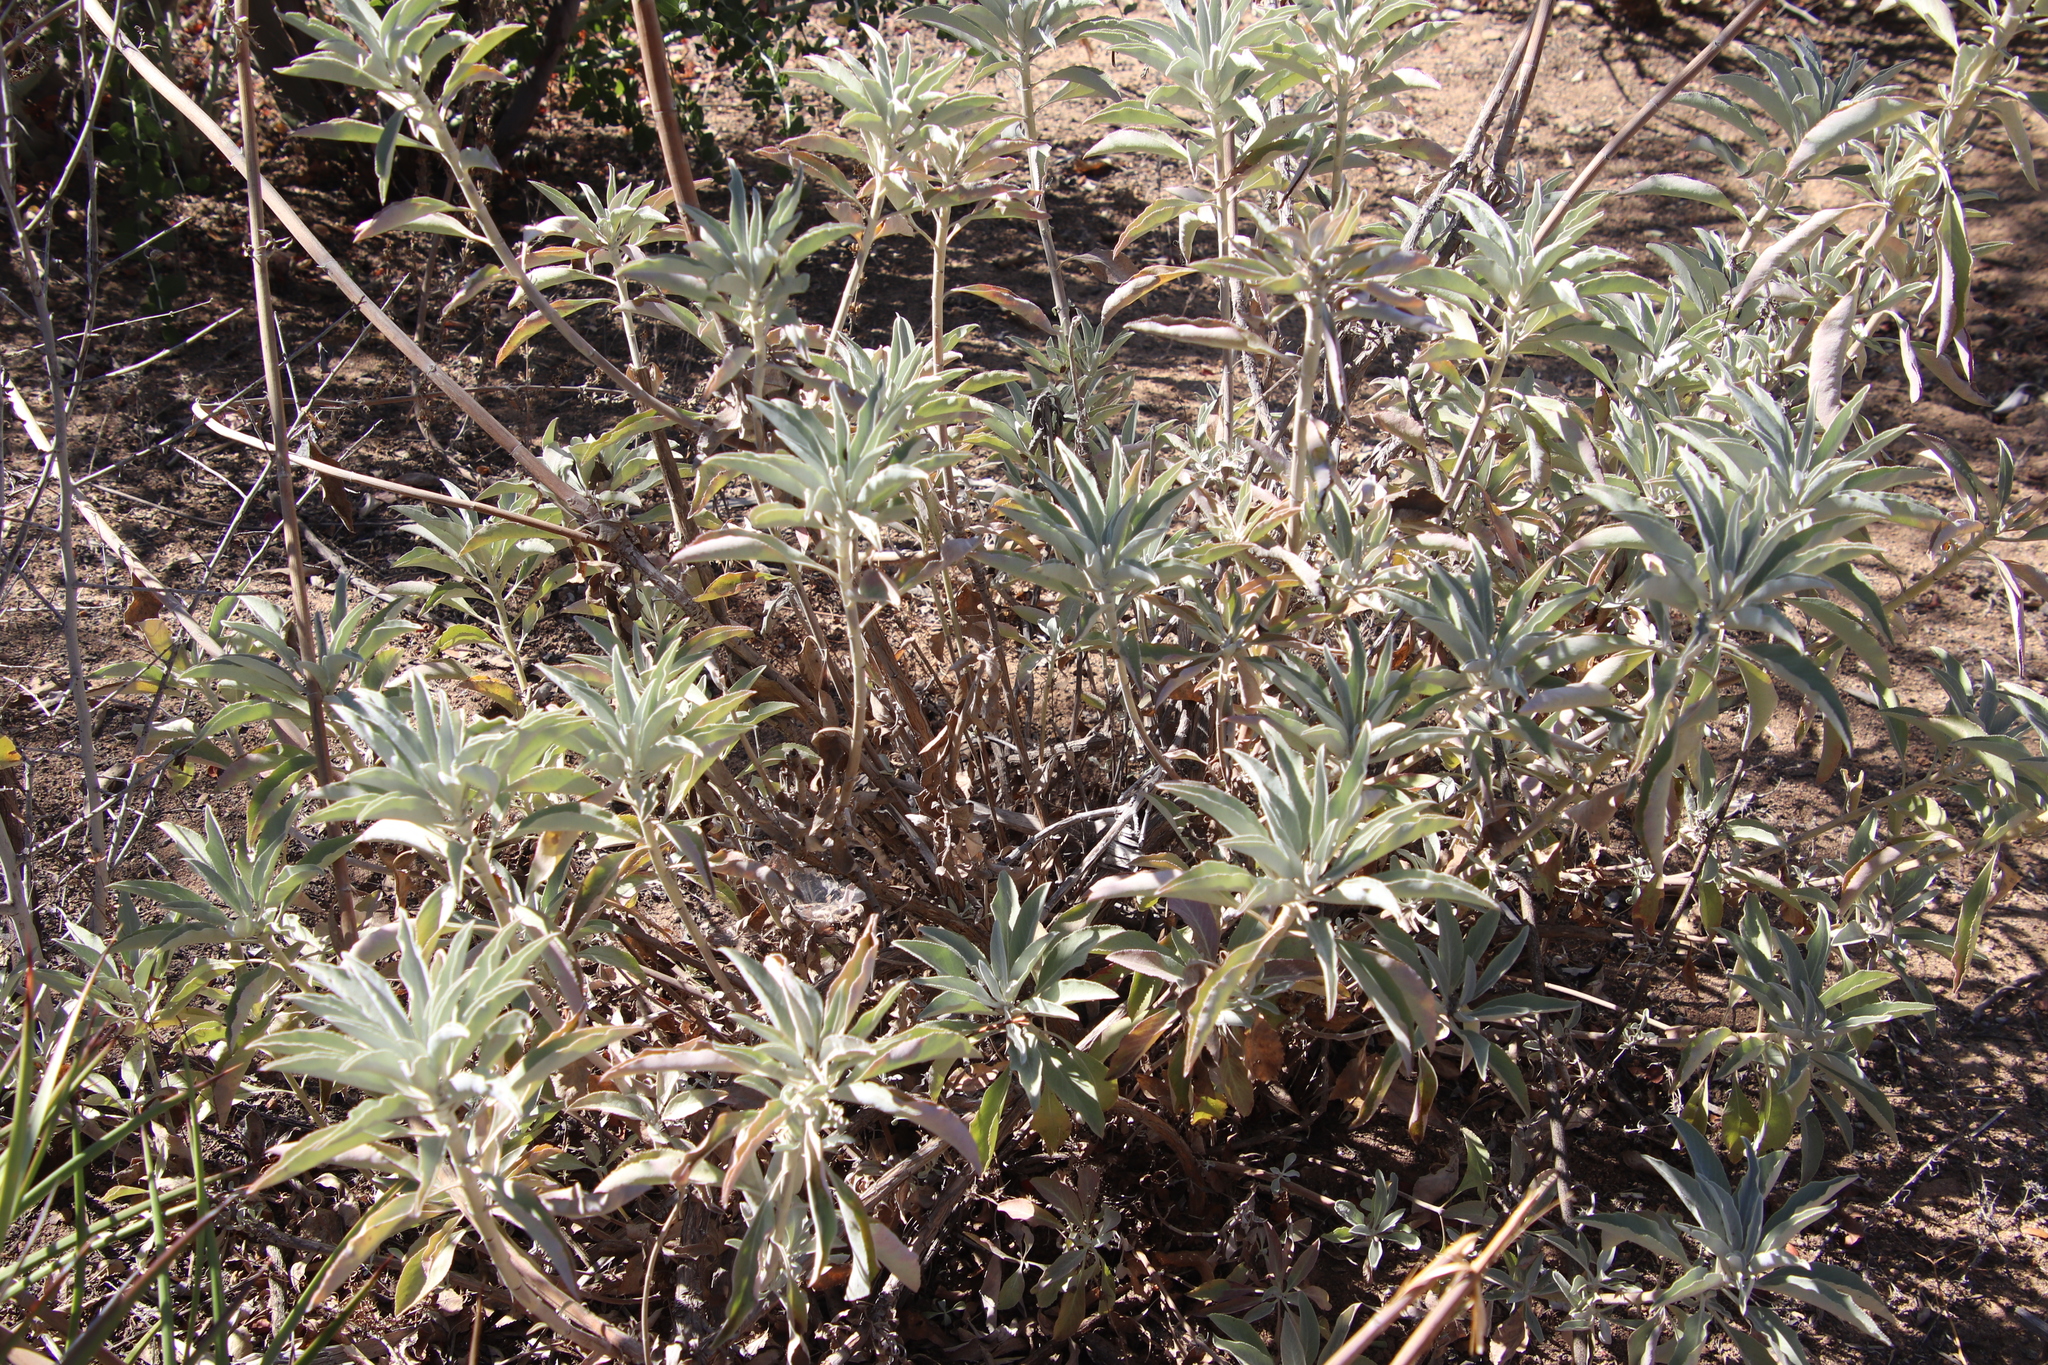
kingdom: Plantae
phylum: Tracheophyta
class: Magnoliopsida
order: Lamiales
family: Lamiaceae
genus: Salvia
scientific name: Salvia apiana
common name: White sage
